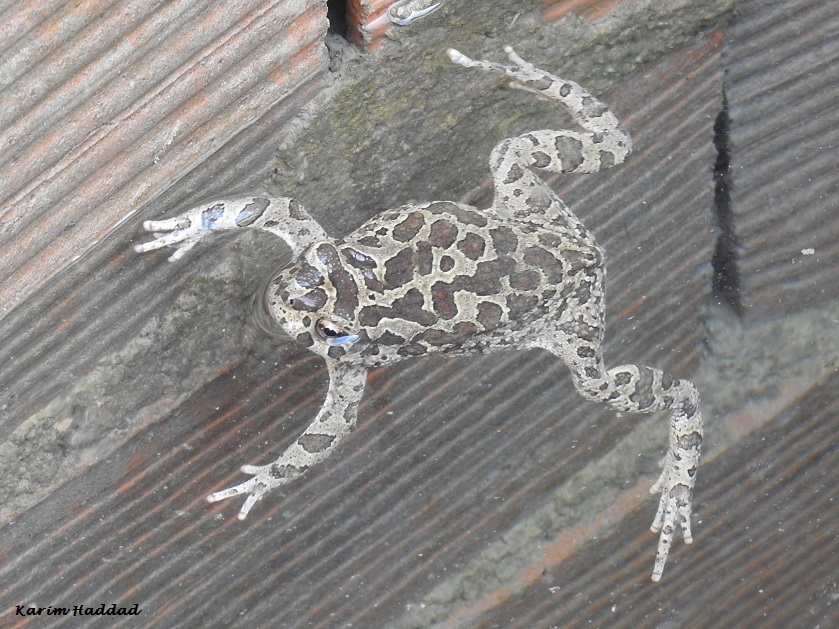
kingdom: Animalia
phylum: Chordata
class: Amphibia
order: Anura
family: Bufonidae
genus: Sclerophrys
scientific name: Sclerophrys mauritanica
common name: Berber toad
